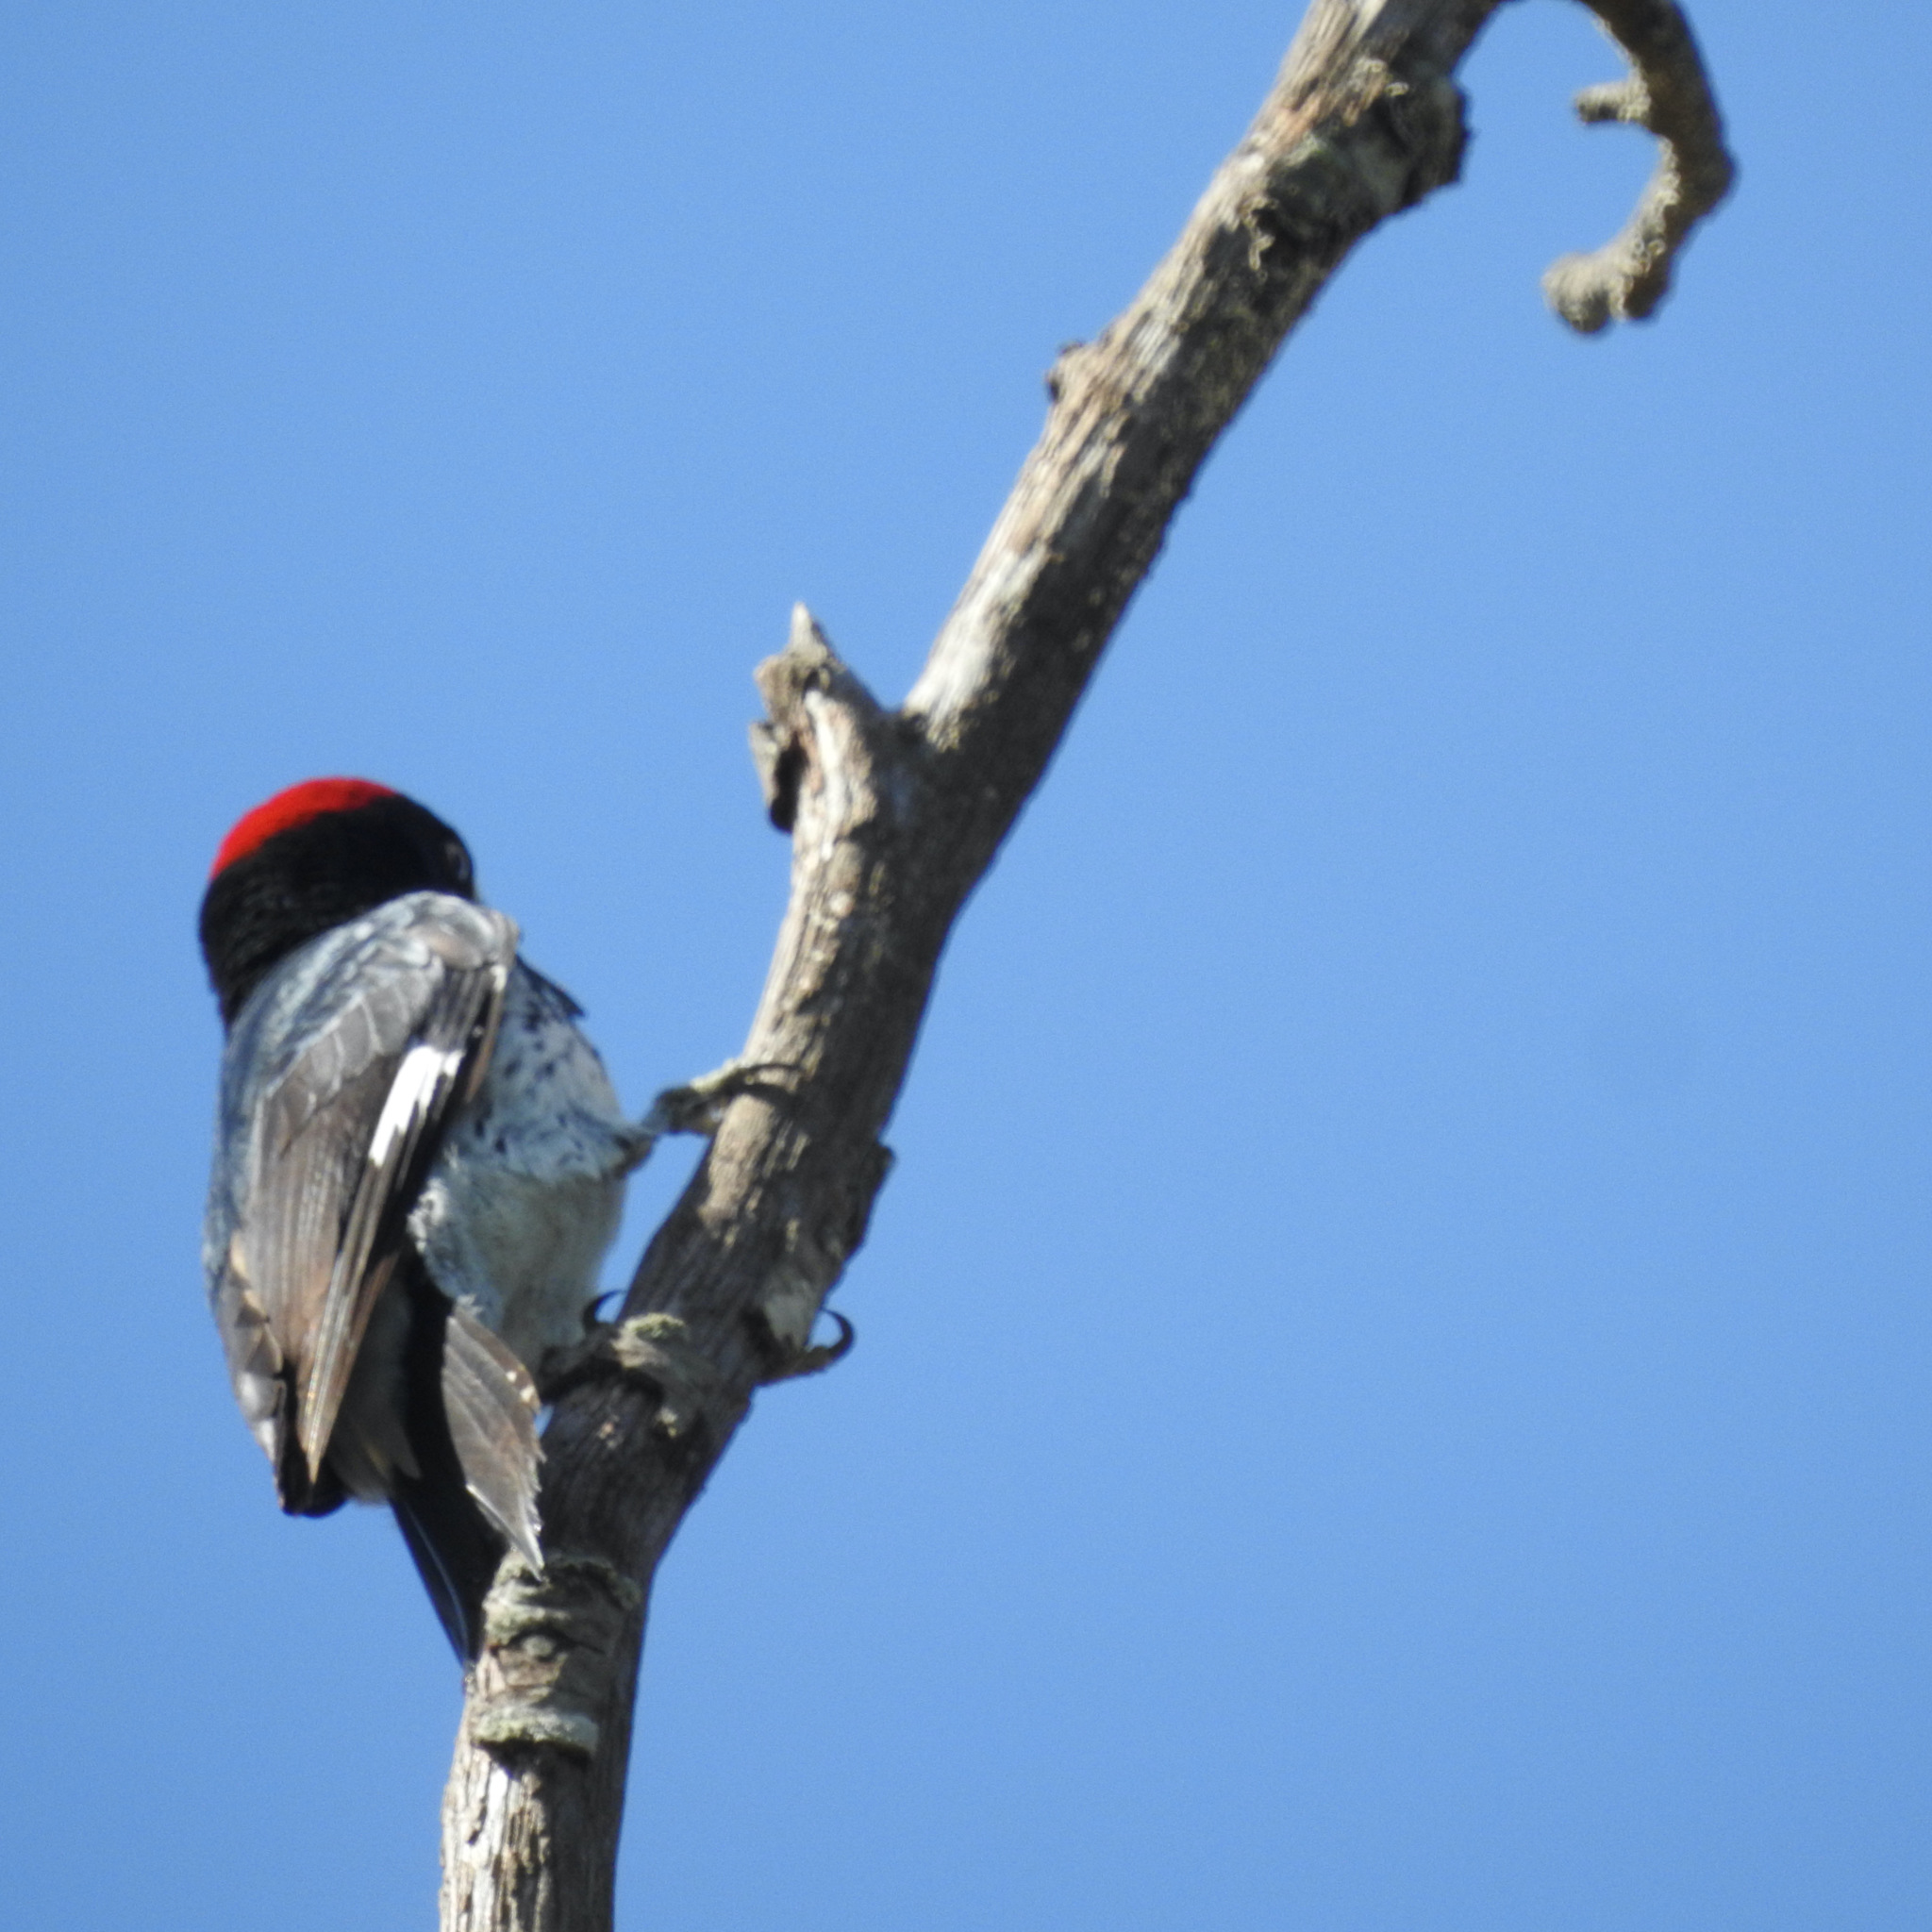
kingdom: Animalia
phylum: Chordata
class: Aves
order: Piciformes
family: Picidae
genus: Melanerpes
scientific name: Melanerpes formicivorus
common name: Acorn woodpecker
